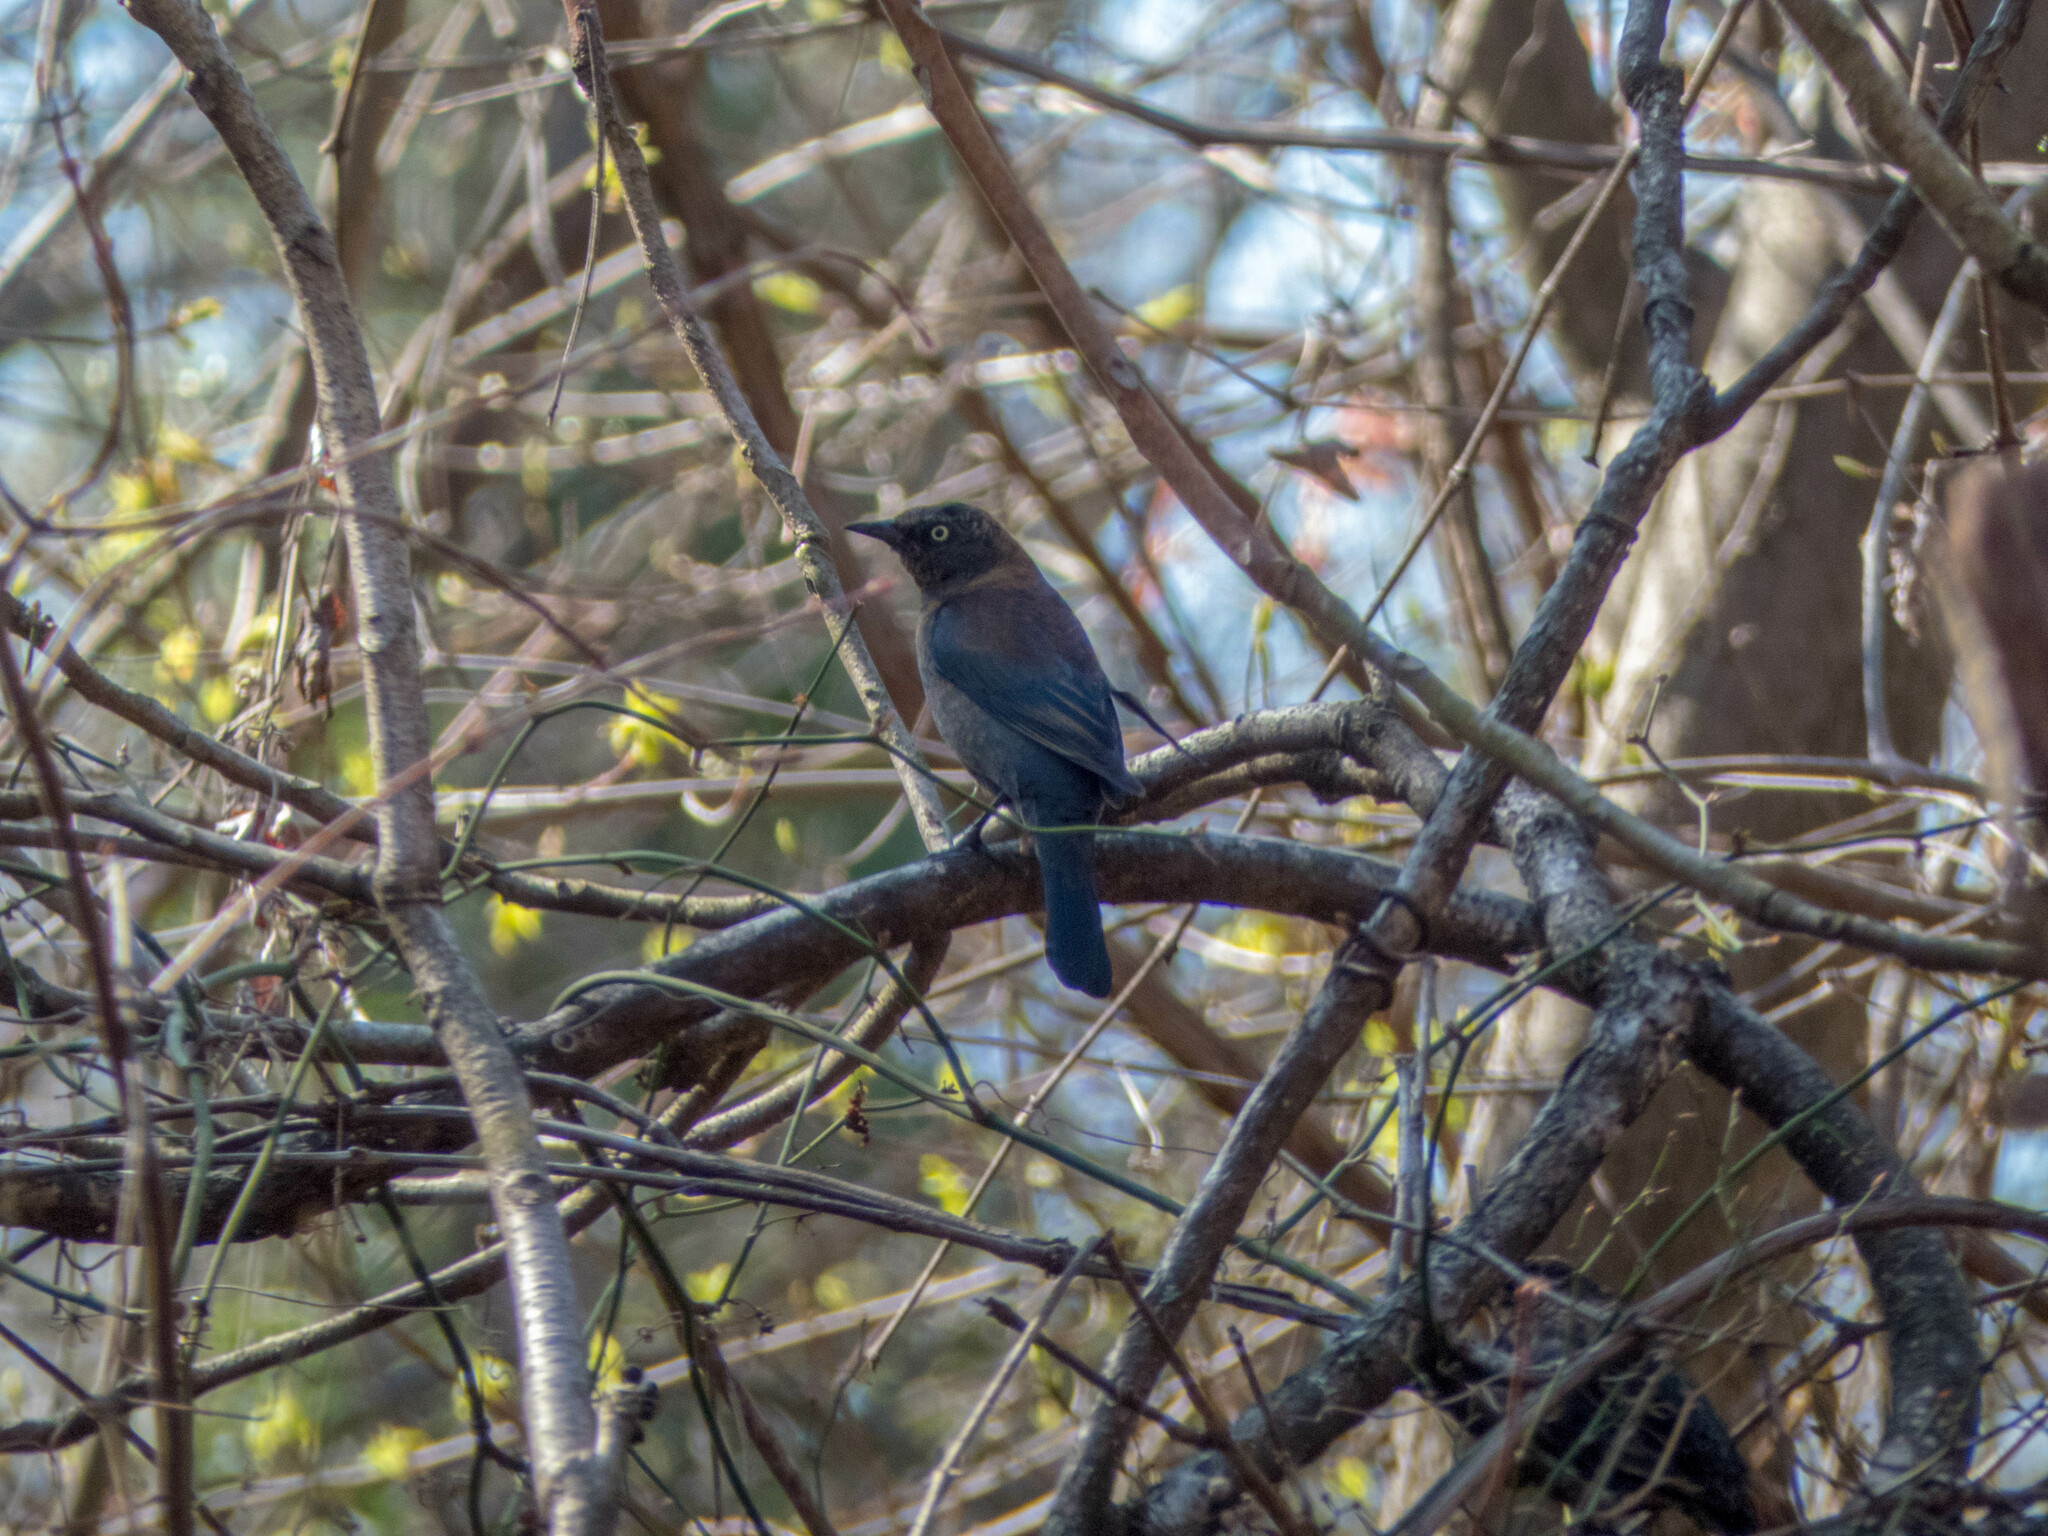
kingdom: Animalia
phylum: Chordata
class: Aves
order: Passeriformes
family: Icteridae
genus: Euphagus
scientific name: Euphagus carolinus
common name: Rusty blackbird
